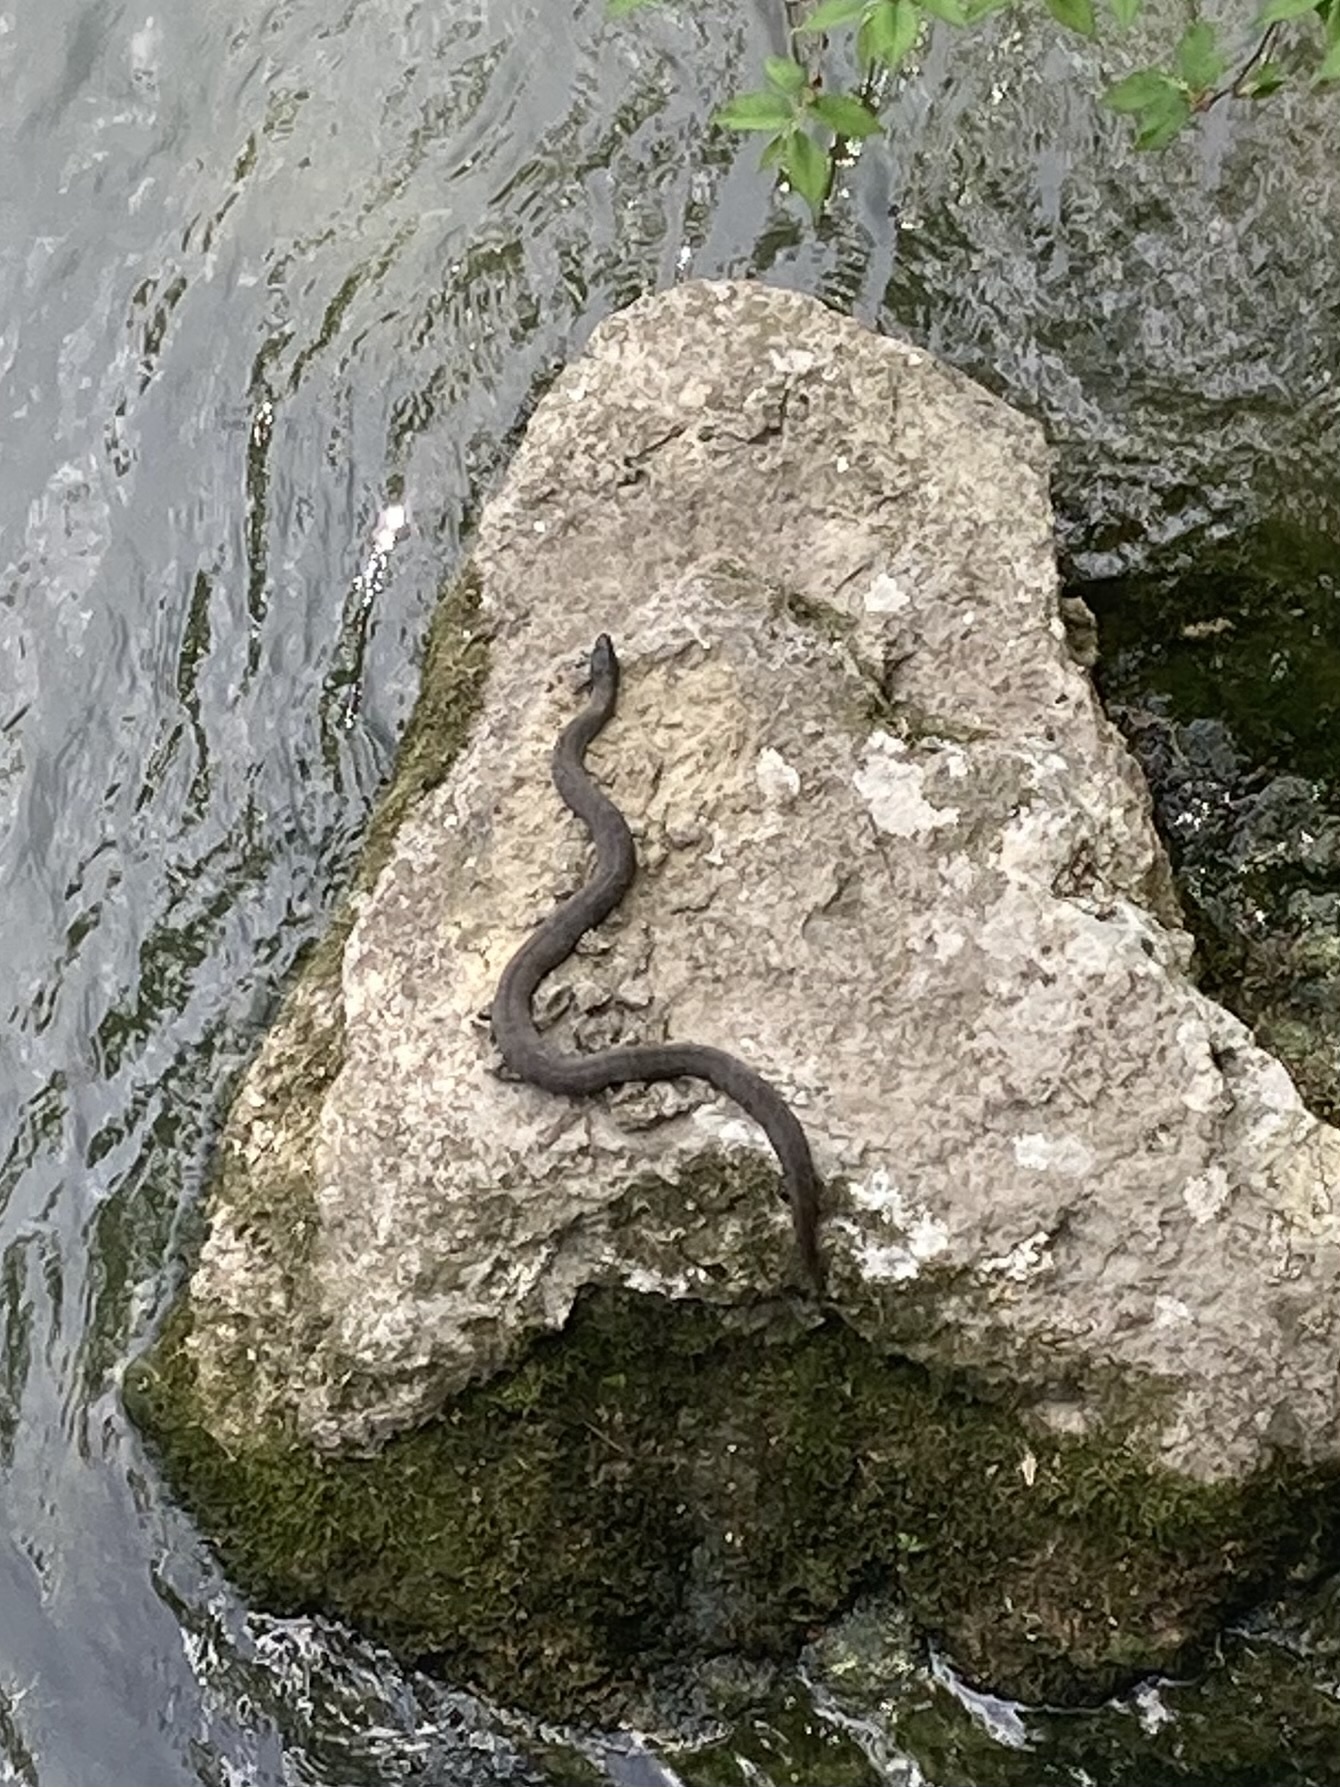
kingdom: Animalia
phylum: Chordata
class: Squamata
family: Colubridae
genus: Nerodia
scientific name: Nerodia sipedon
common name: Northern water snake
